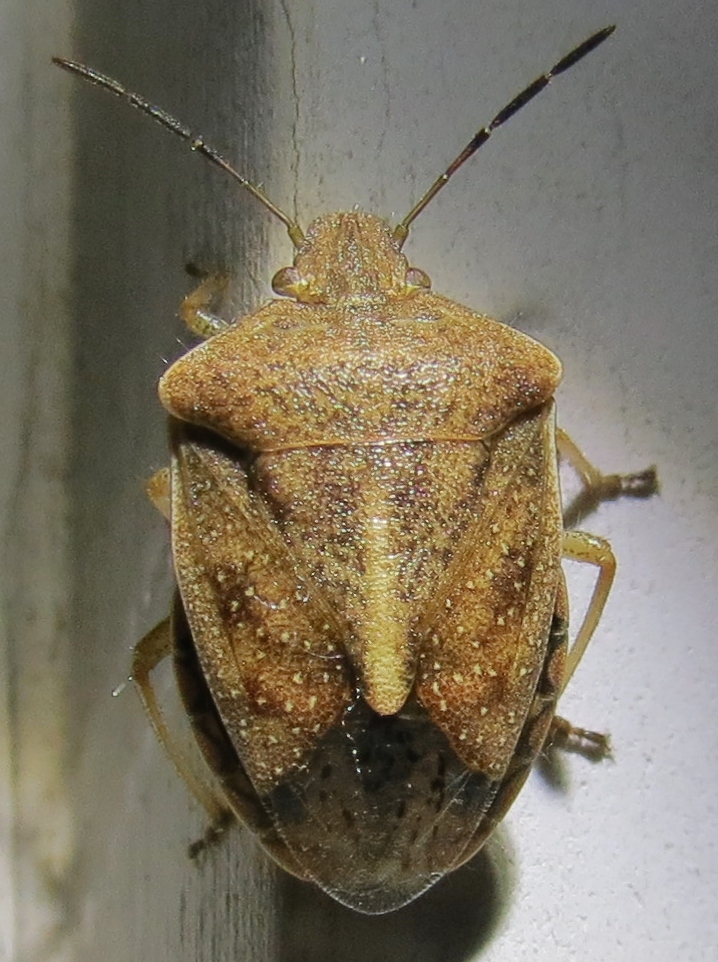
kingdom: Animalia
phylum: Arthropoda
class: Insecta
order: Hemiptera
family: Pentatomidae
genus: Thyanta
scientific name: Thyanta custator
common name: Stink bug
